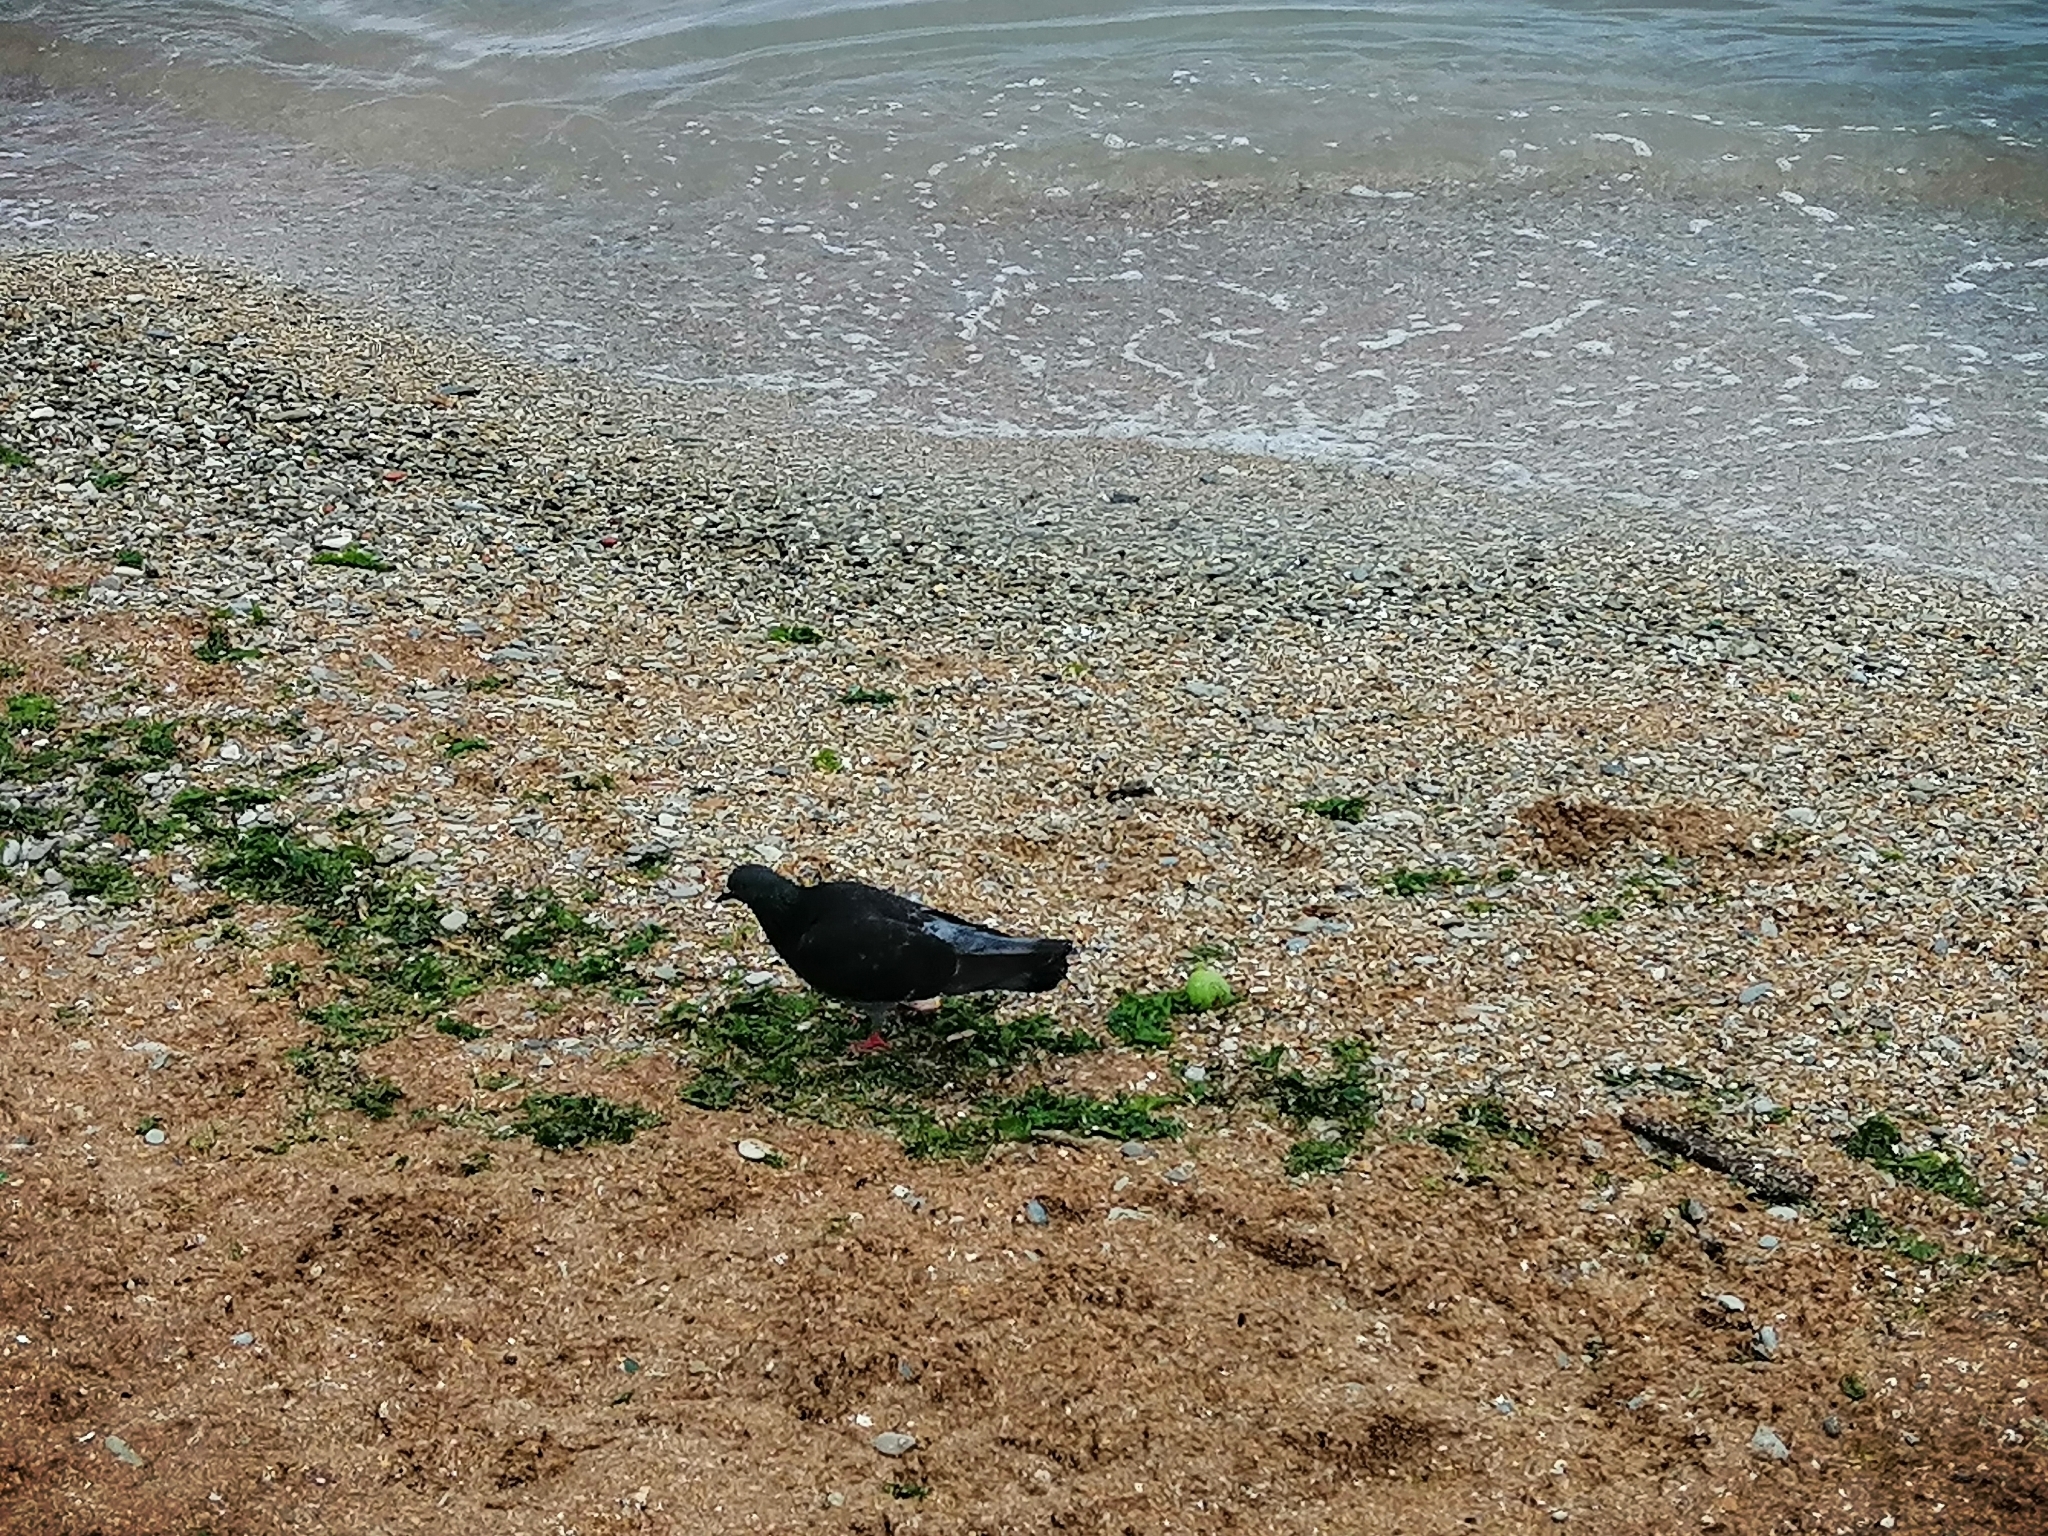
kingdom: Animalia
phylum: Chordata
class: Aves
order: Columbiformes
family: Columbidae
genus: Columba
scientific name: Columba livia
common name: Rock pigeon
